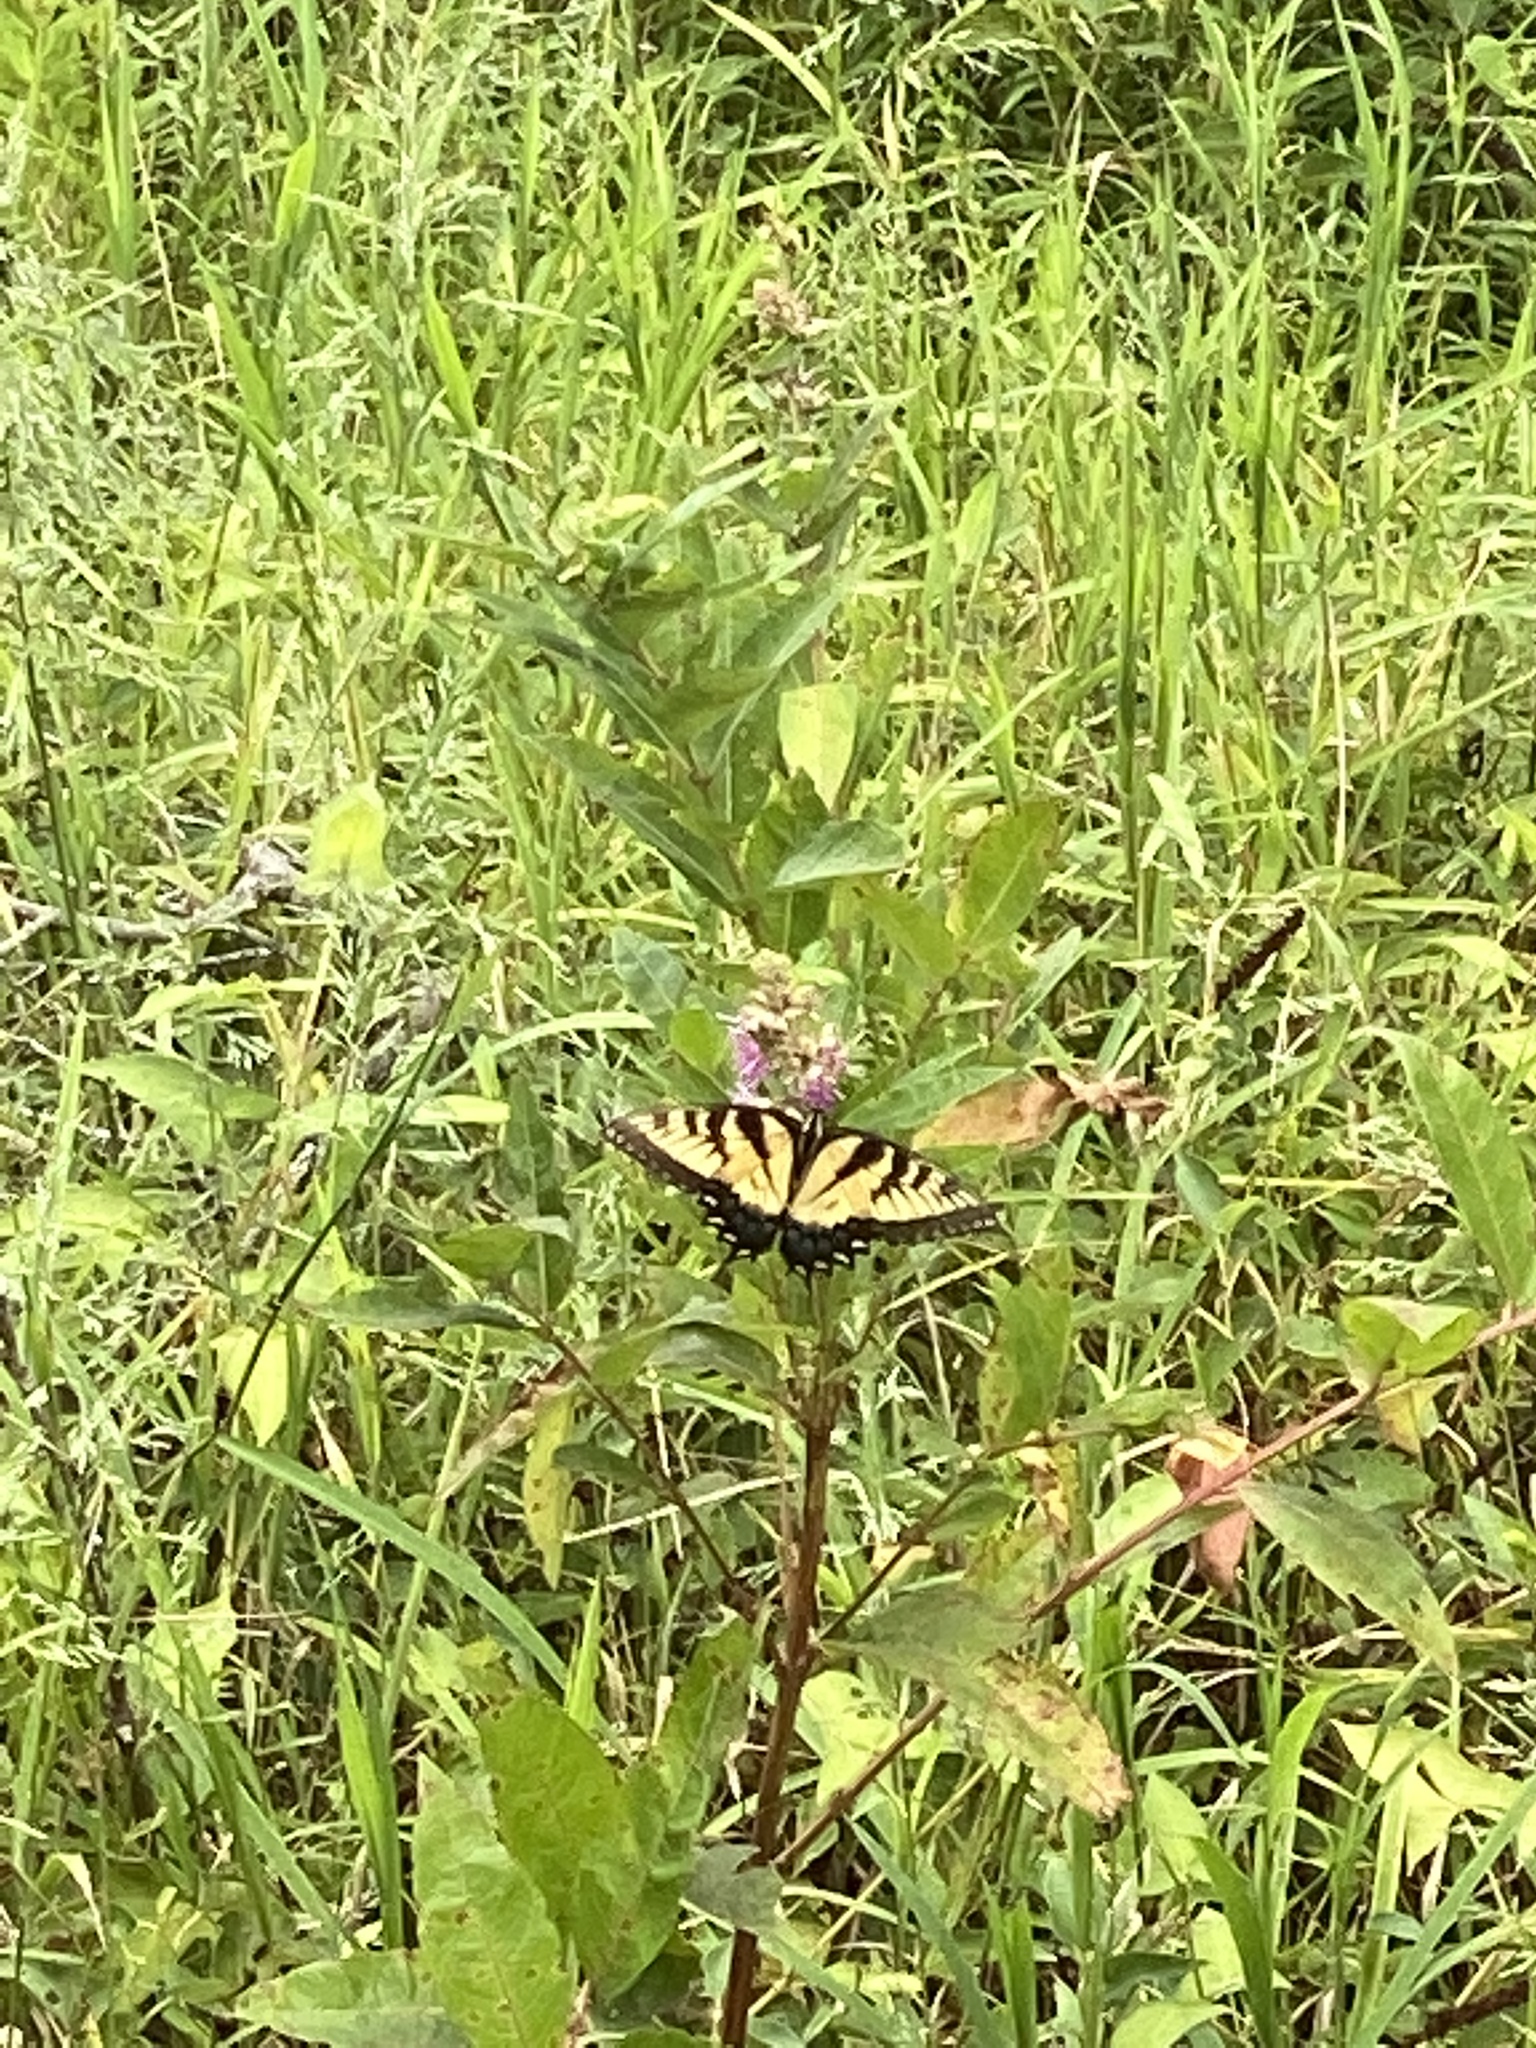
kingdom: Animalia
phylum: Arthropoda
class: Insecta
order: Lepidoptera
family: Papilionidae
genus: Papilio
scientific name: Papilio glaucus
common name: Tiger swallowtail
